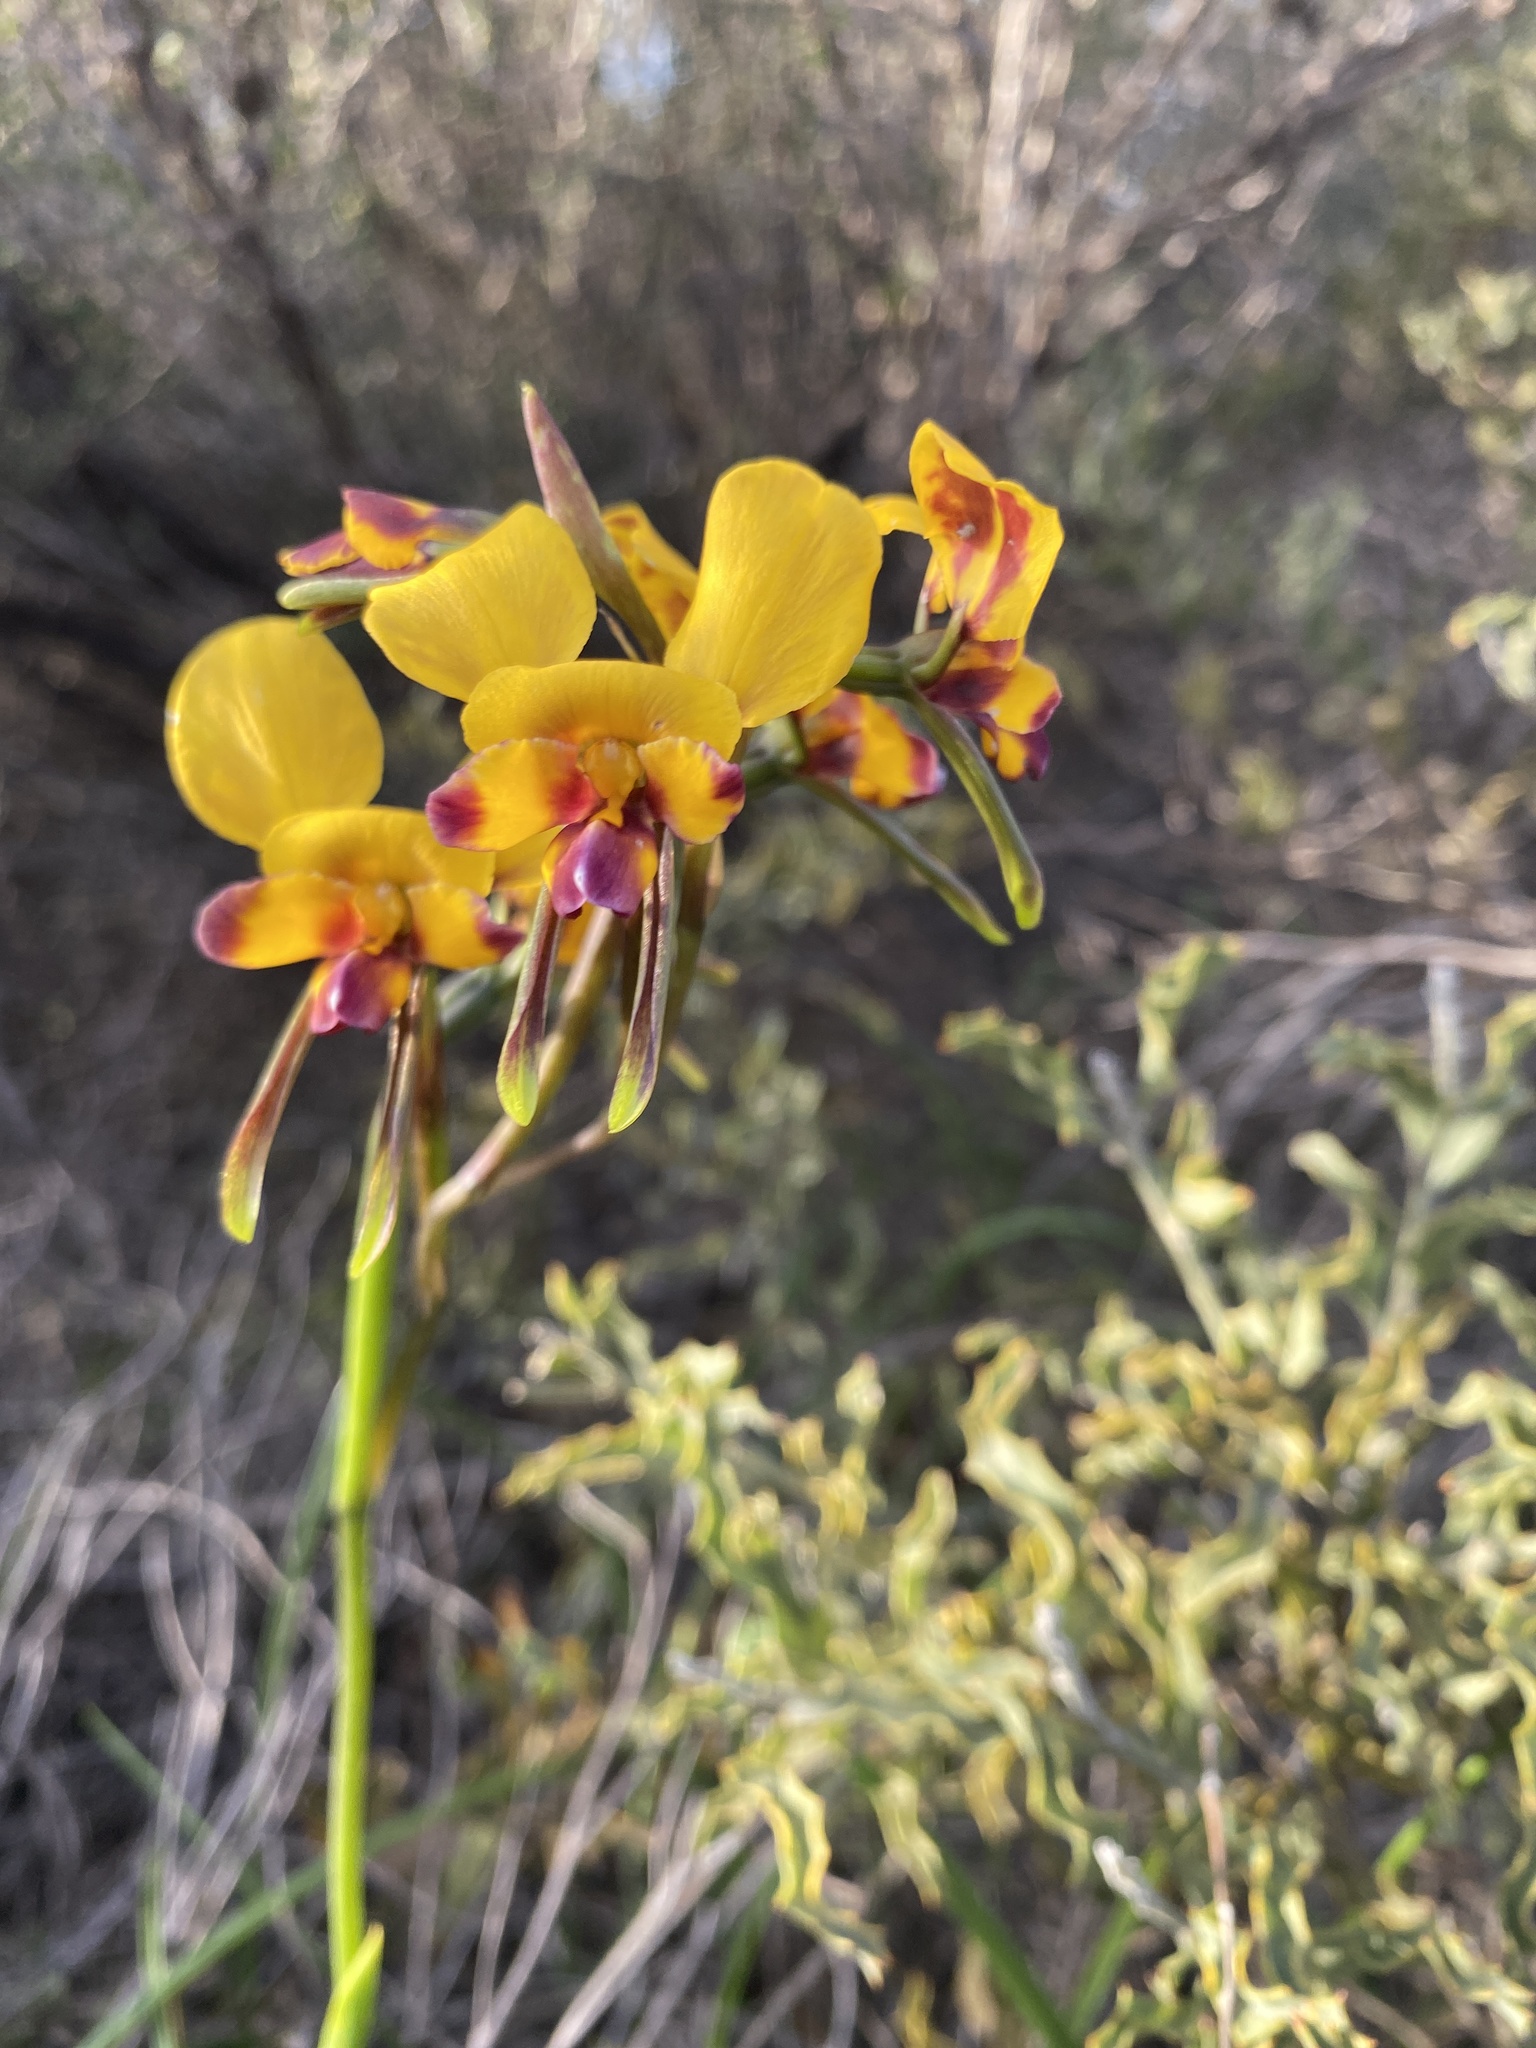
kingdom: Plantae
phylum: Tracheophyta
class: Liliopsida
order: Asparagales
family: Orchidaceae
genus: Diuris
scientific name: Diuris tinkeri
